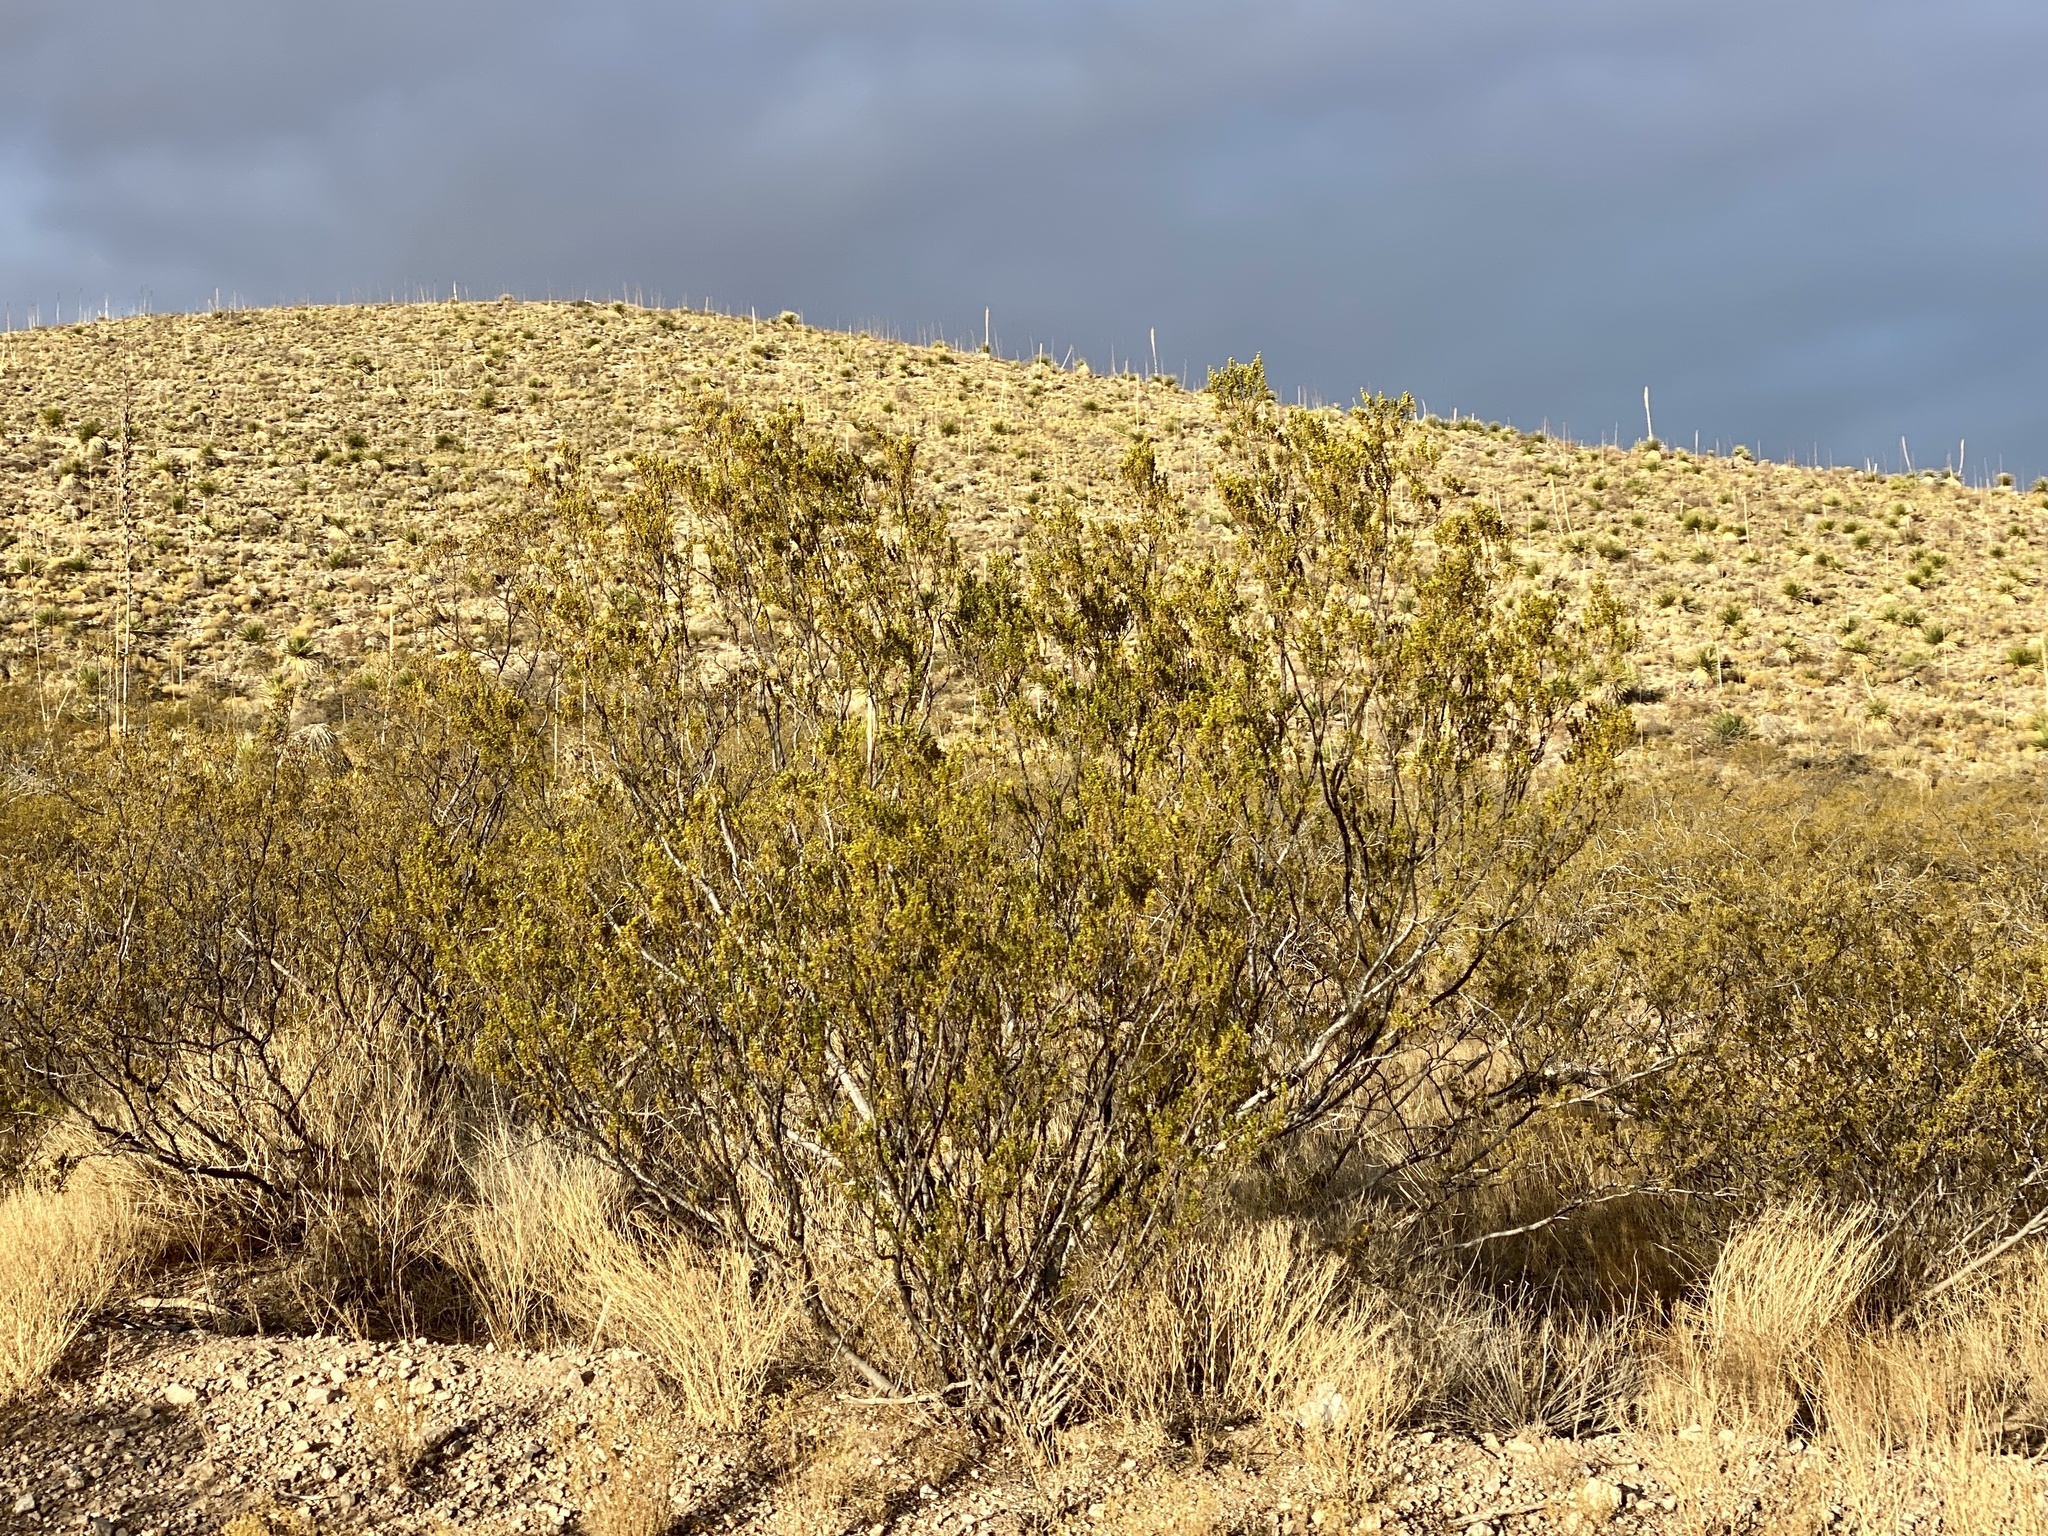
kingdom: Plantae
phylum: Tracheophyta
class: Magnoliopsida
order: Zygophyllales
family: Zygophyllaceae
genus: Larrea
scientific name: Larrea tridentata
